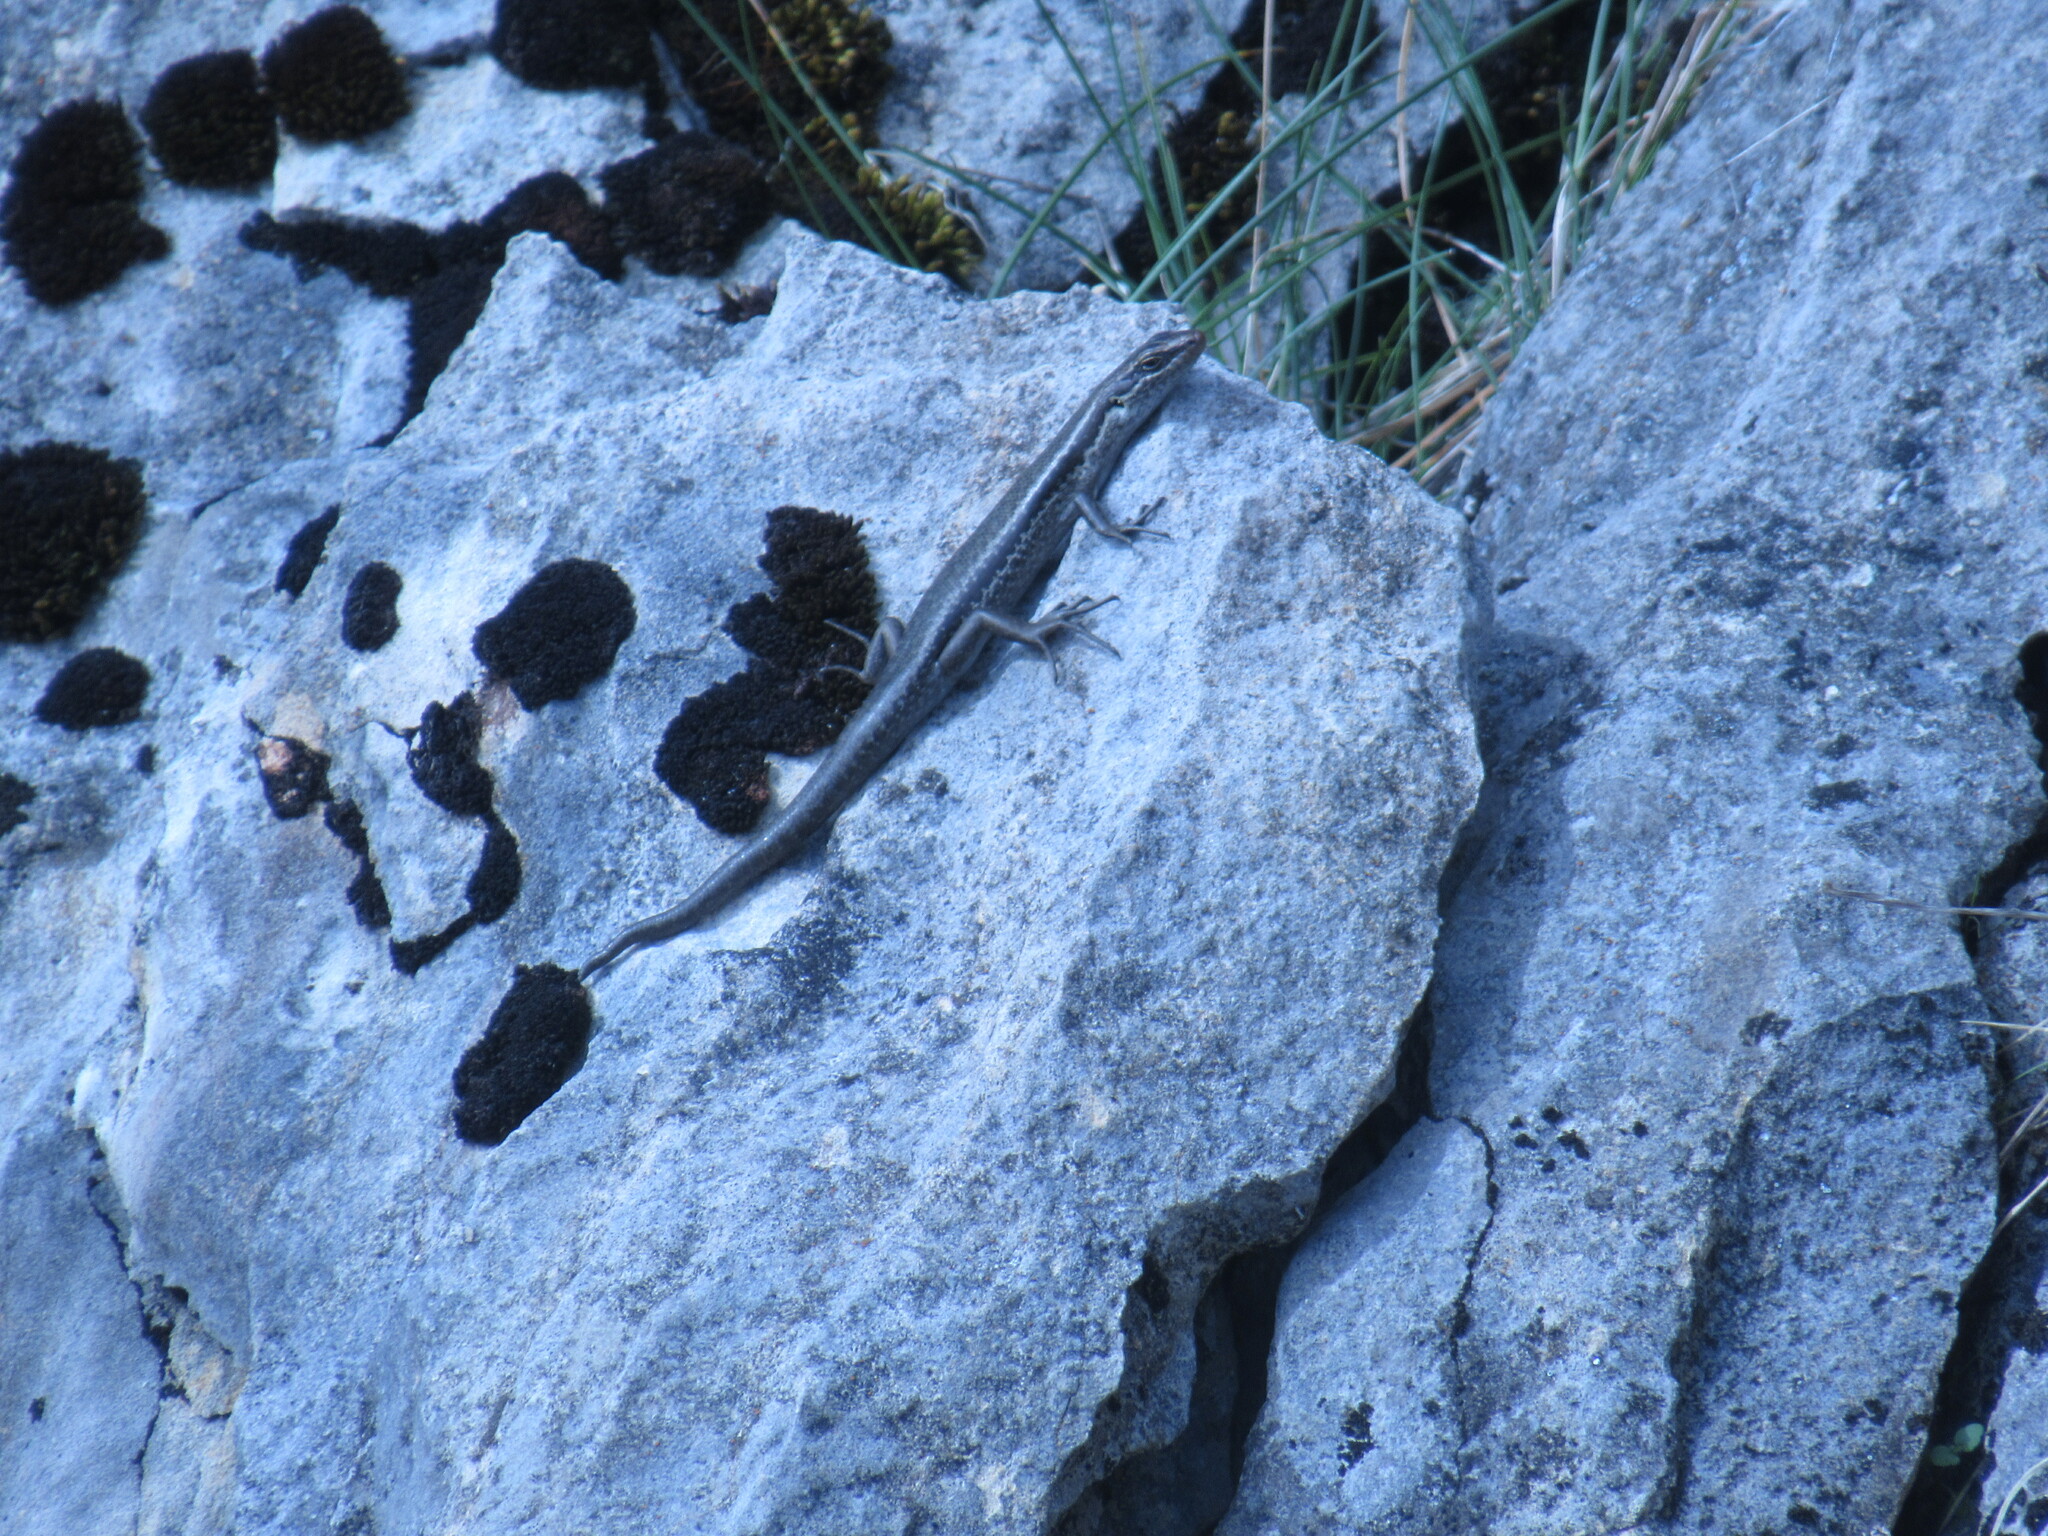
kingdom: Animalia
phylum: Chordata
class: Squamata
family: Scincidae
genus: Oligosoma
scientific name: Oligosoma longipes
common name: Long-toed skink
